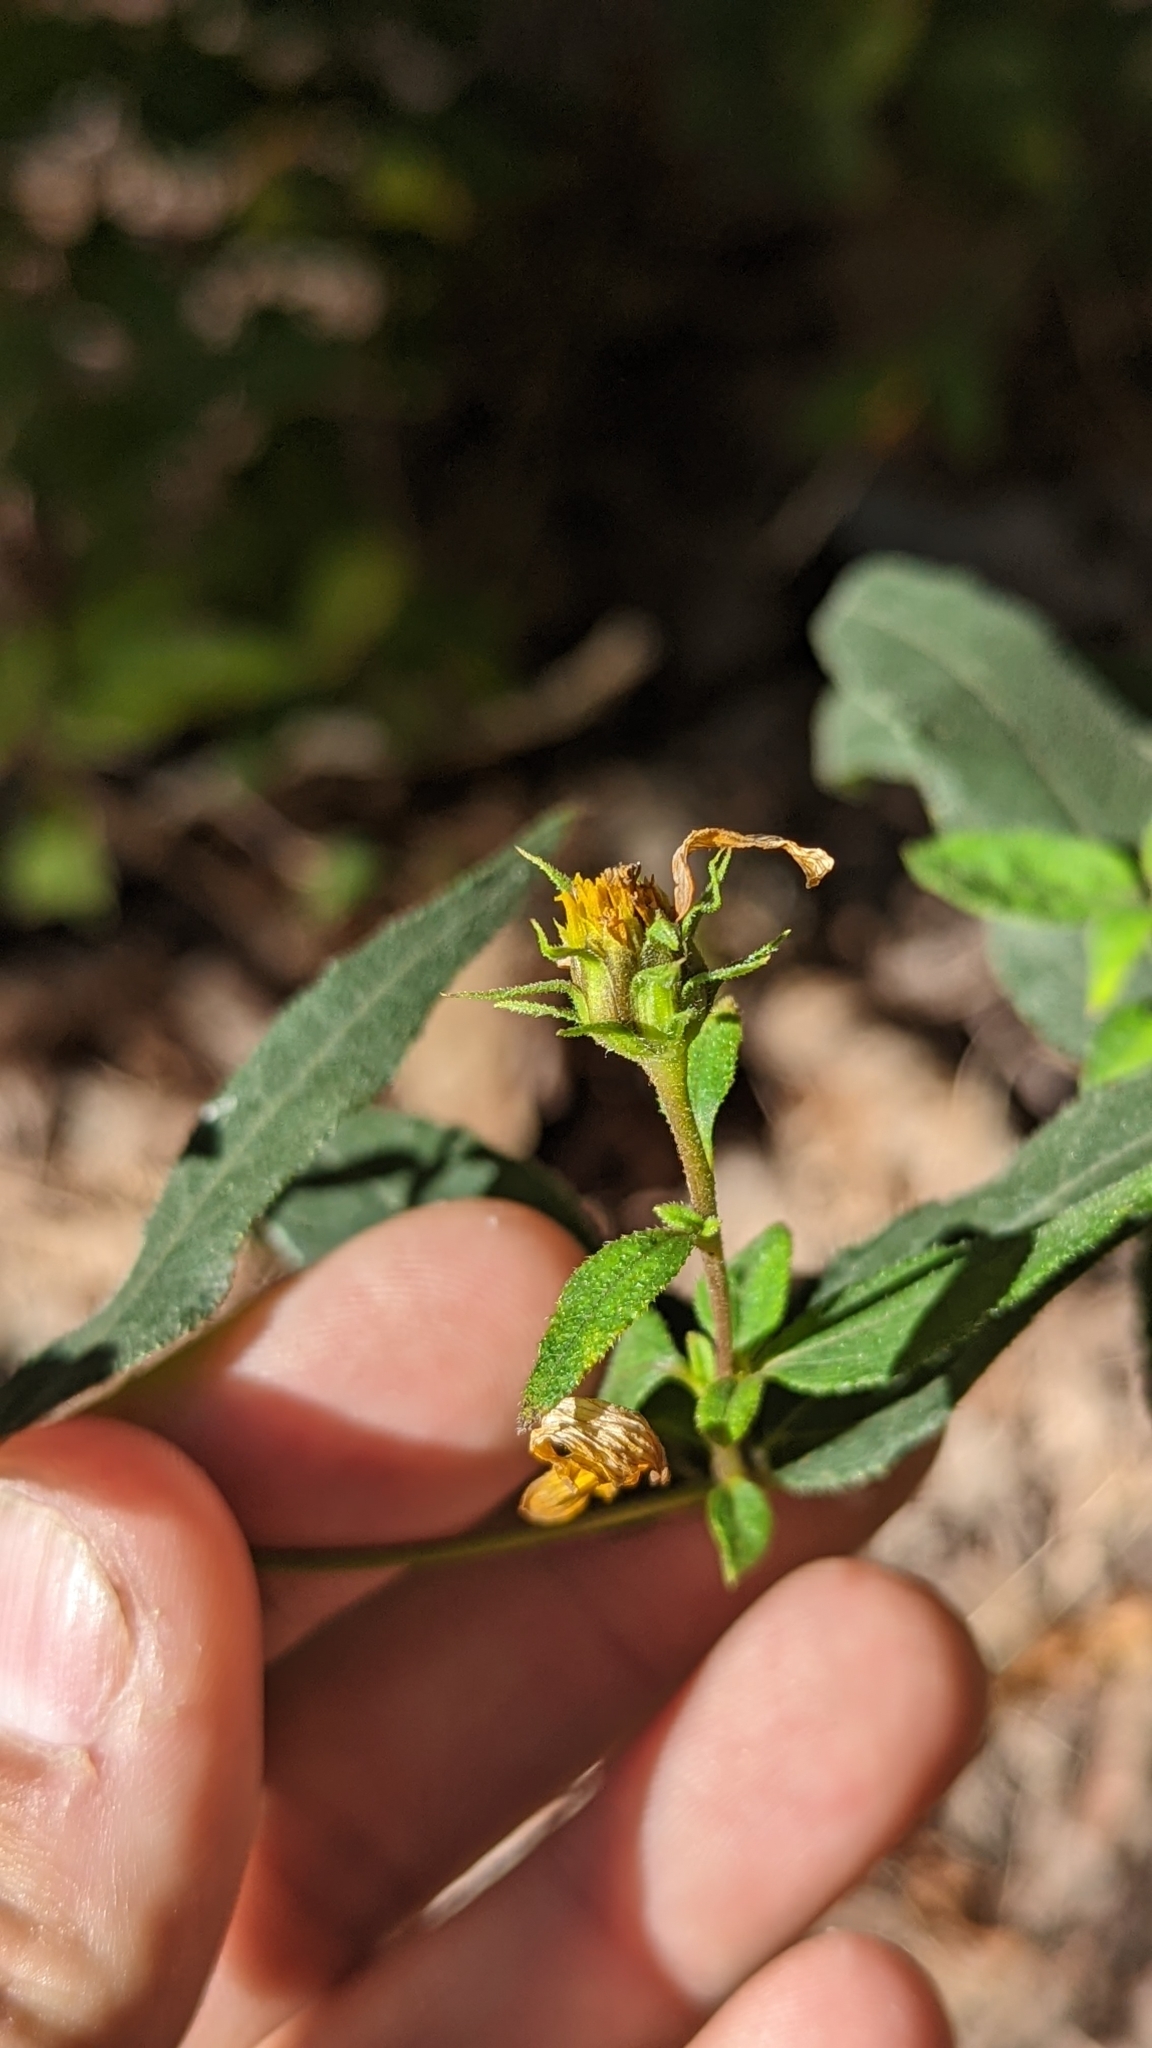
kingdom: Plantae
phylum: Tracheophyta
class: Magnoliopsida
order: Asterales
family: Asteraceae
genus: Helianthus
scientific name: Helianthus divaricatus
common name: Divergent sunflower
